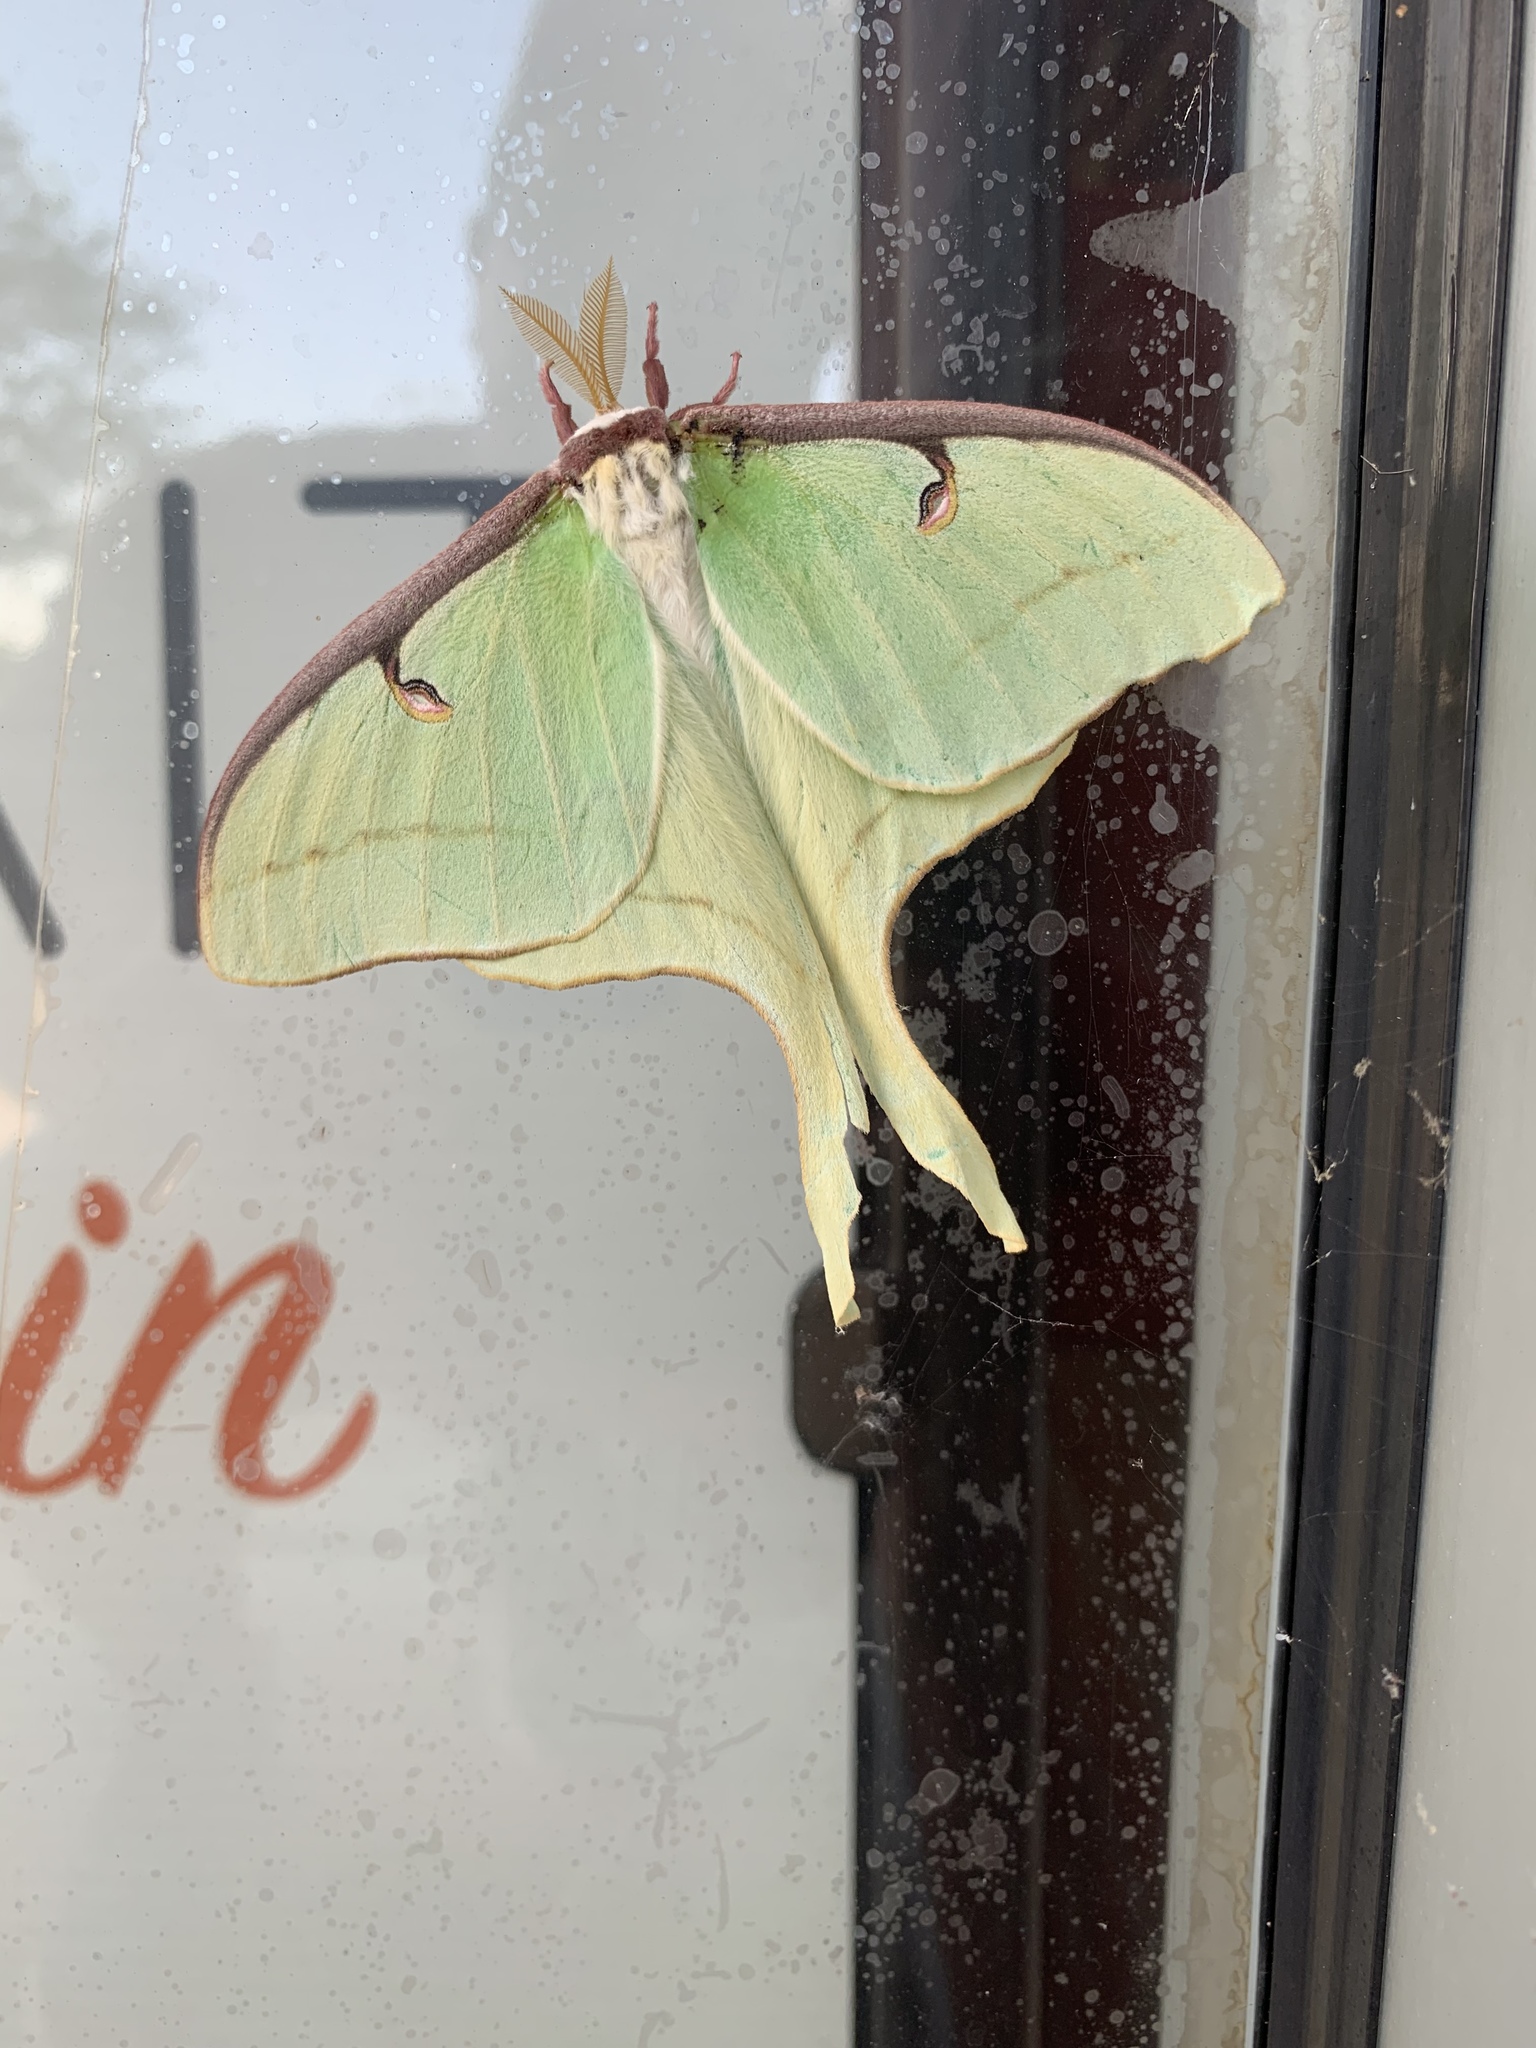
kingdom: Animalia
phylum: Arthropoda
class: Insecta
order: Lepidoptera
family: Saturniidae
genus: Actias
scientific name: Actias luna
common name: Luna moth
